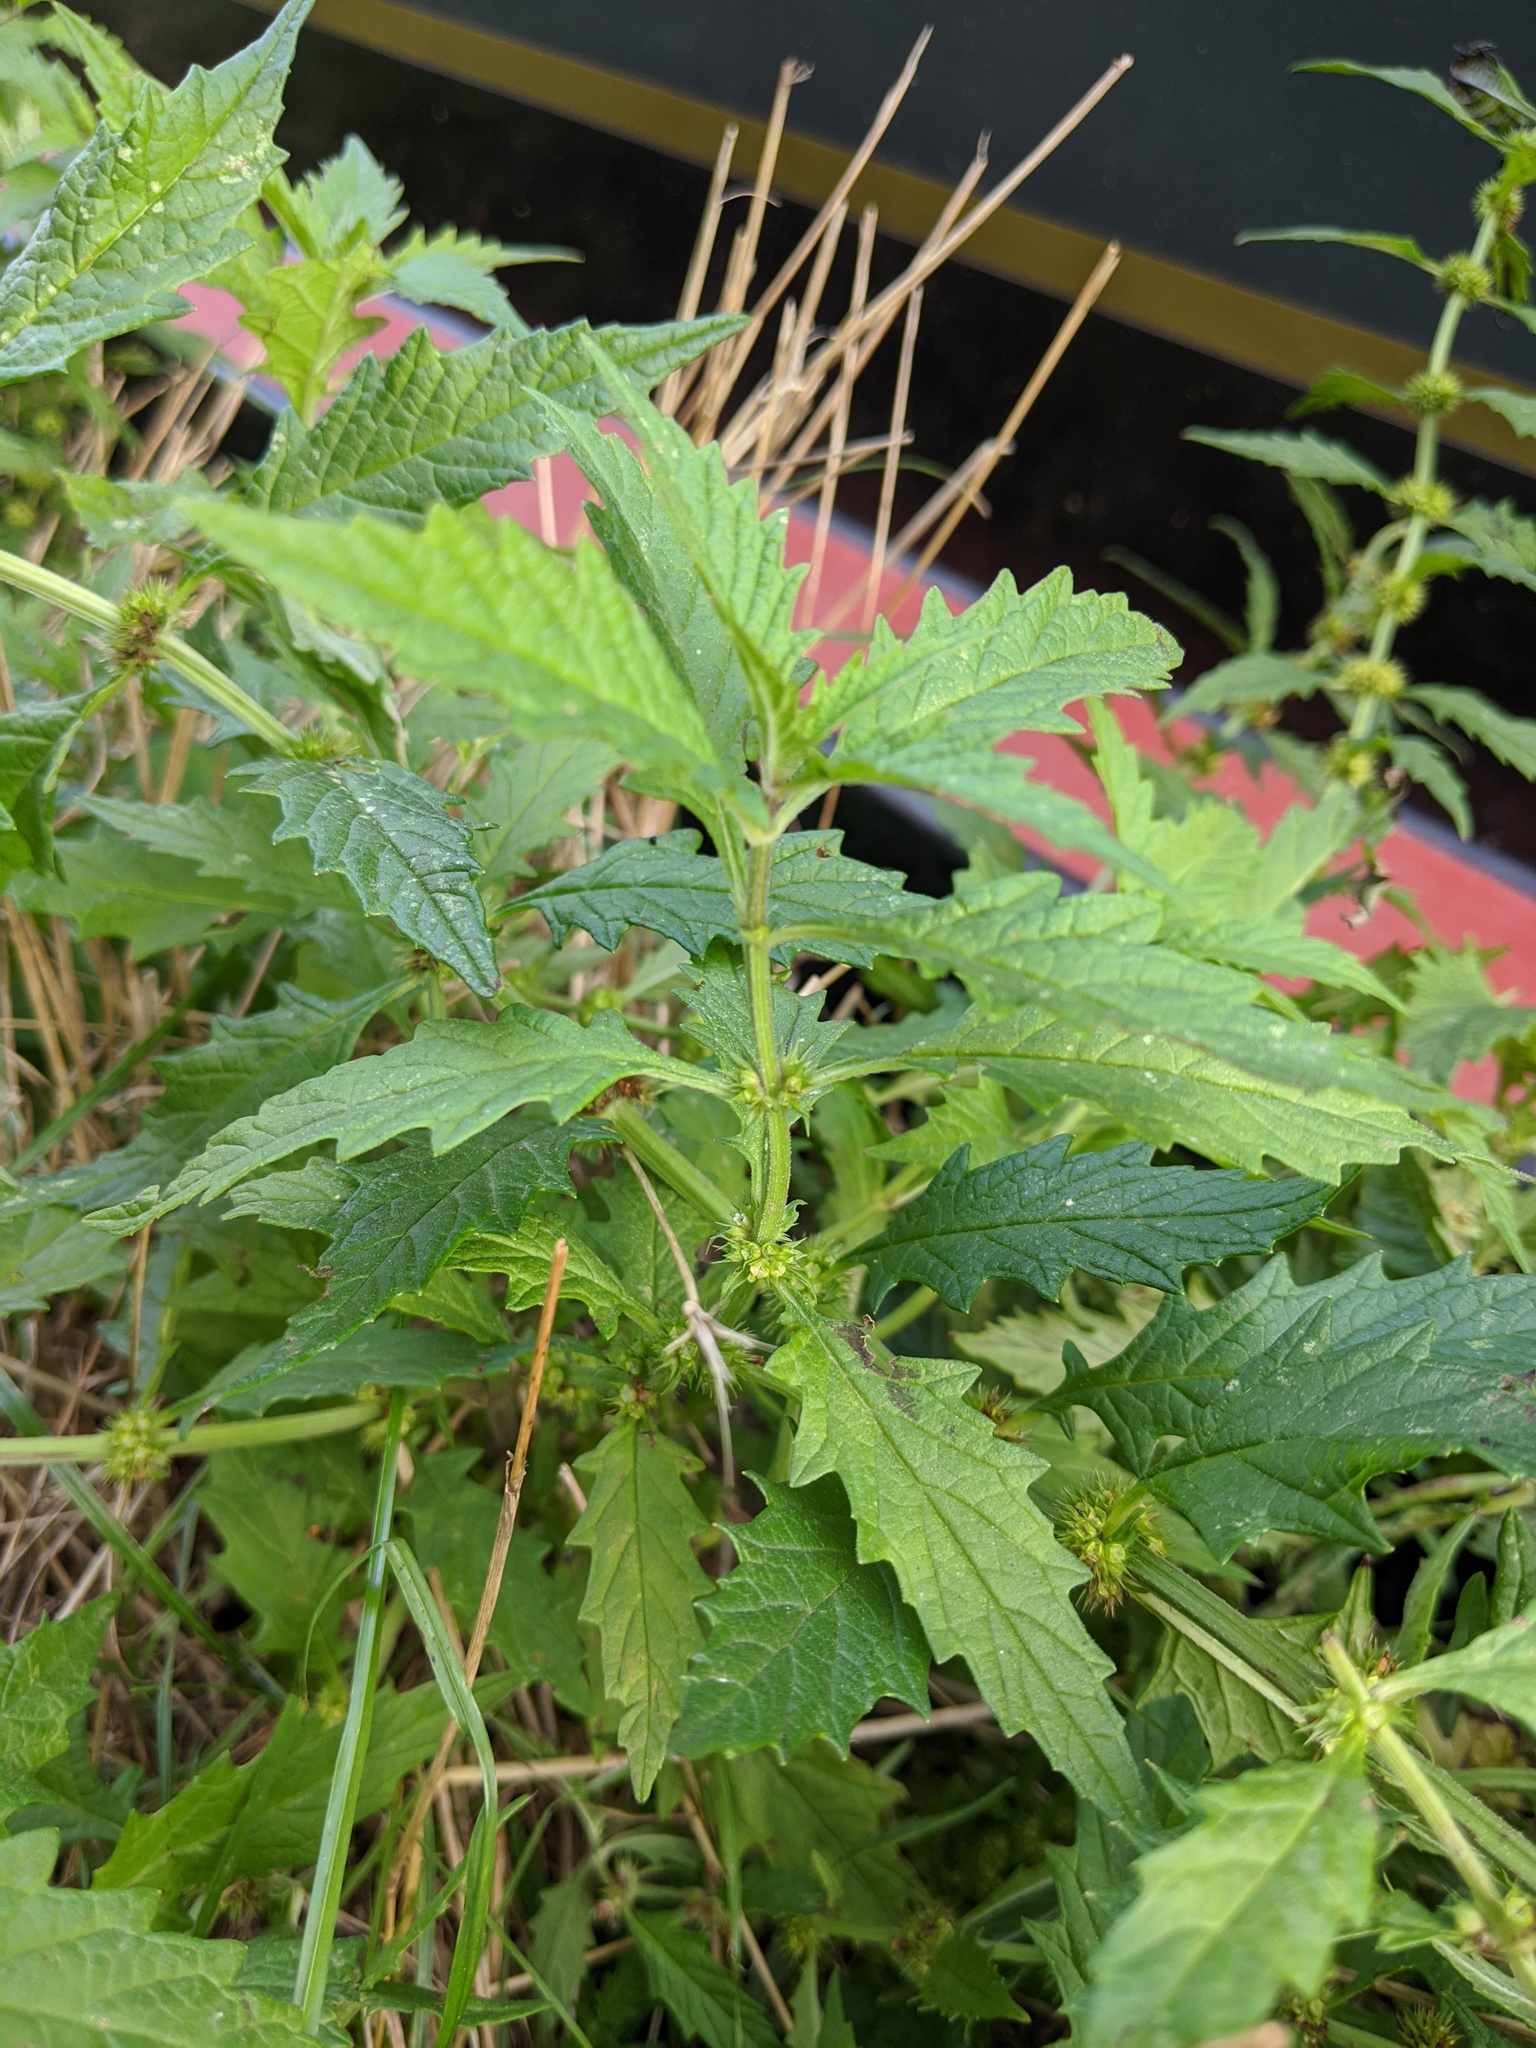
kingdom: Plantae
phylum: Tracheophyta
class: Magnoliopsida
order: Lamiales
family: Lamiaceae
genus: Lycopus
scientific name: Lycopus europaeus
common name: European bugleweed
